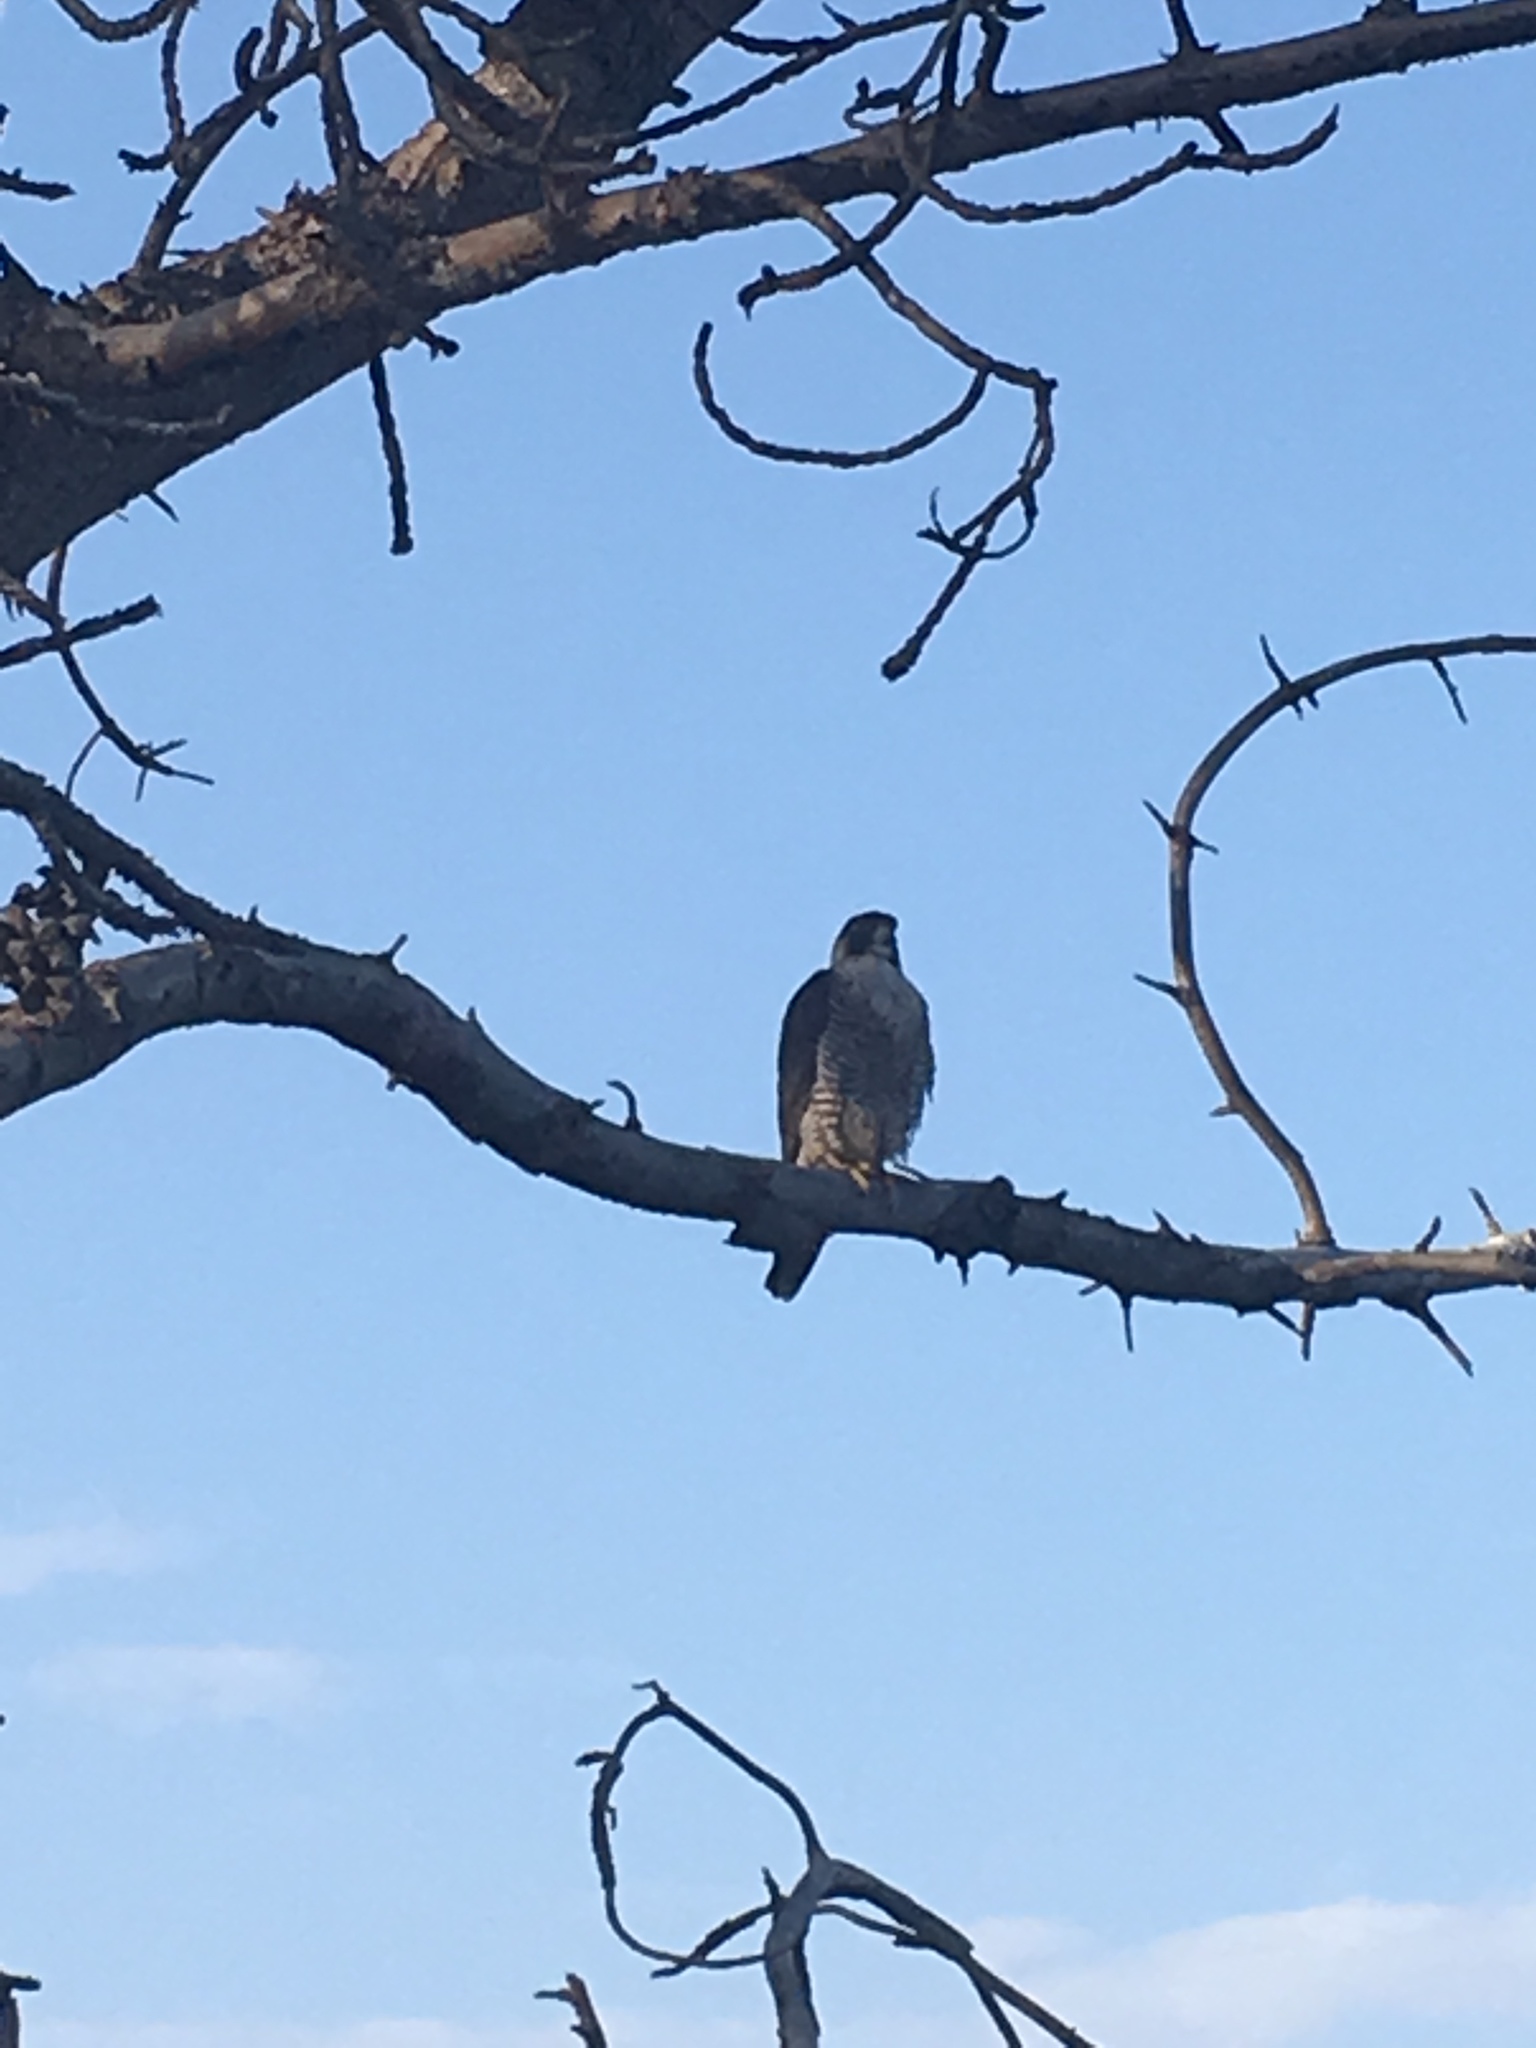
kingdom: Animalia
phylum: Chordata
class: Aves
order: Falconiformes
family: Falconidae
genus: Falco
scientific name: Falco peregrinus
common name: Peregrine falcon
